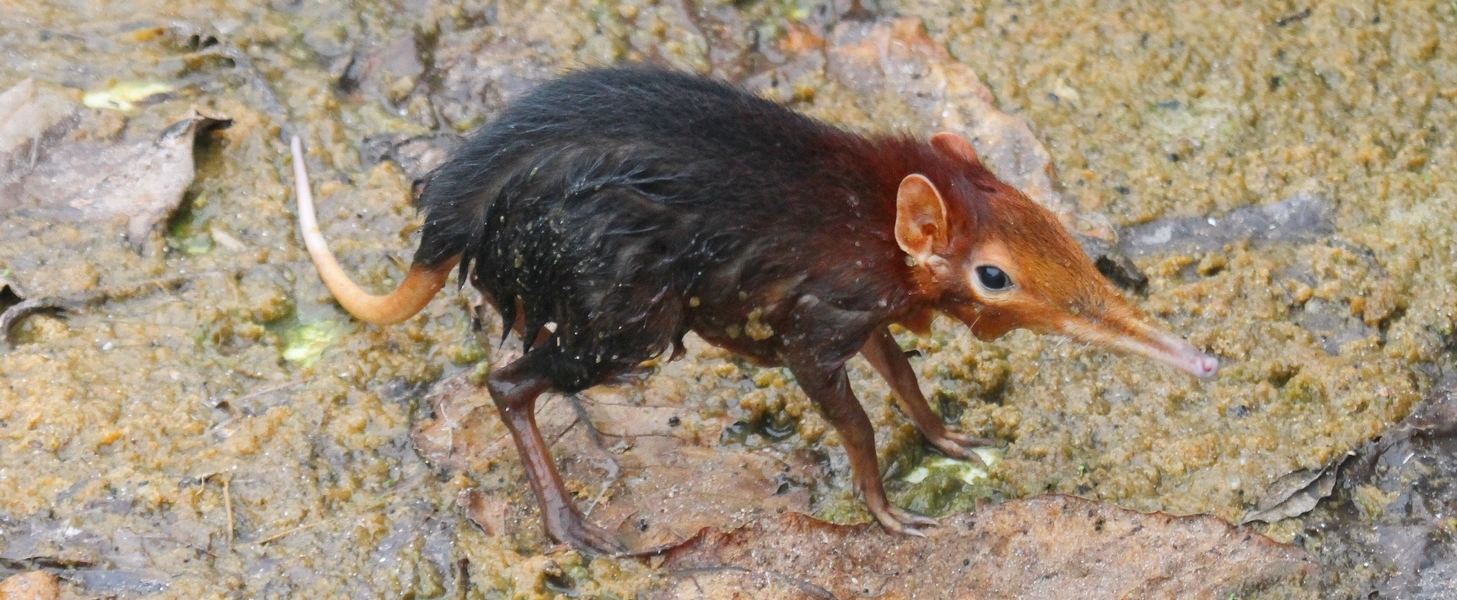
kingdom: Animalia
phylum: Chordata
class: Mammalia
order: Macroscelidea
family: Macroscelididae
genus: Rhynchocyon
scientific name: Rhynchocyon petersi
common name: Black and rufous elephant shrew/sengi
